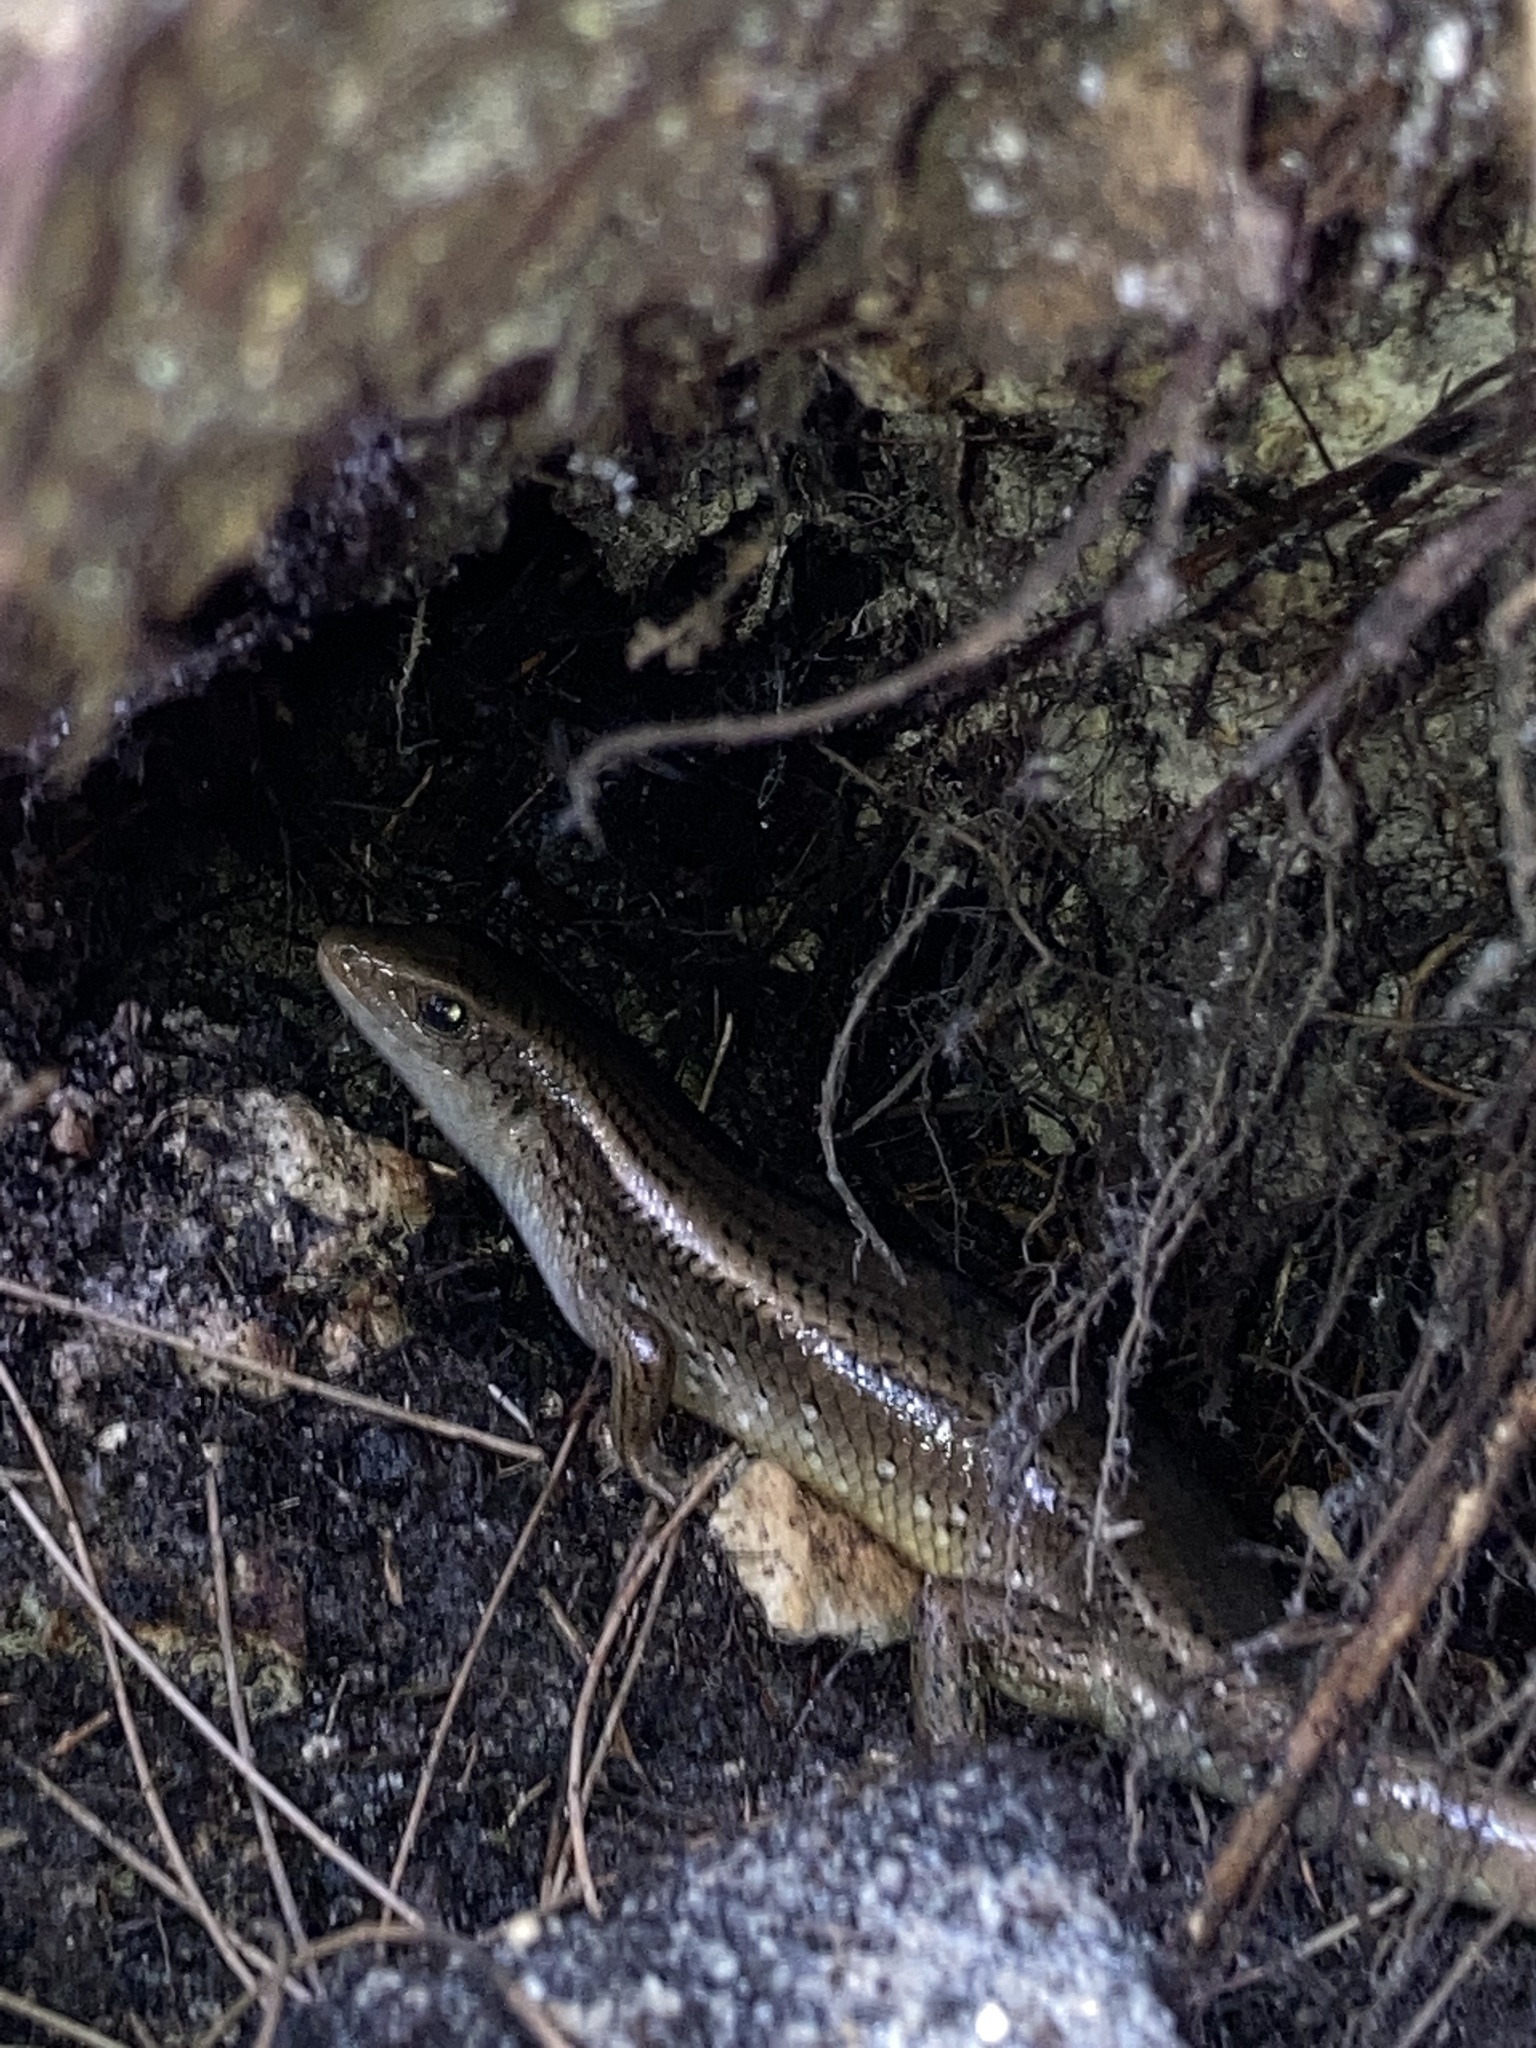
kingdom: Animalia
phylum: Chordata
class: Squamata
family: Scincidae
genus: Eutropis
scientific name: Eutropis multifasciata
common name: Common mabuya
